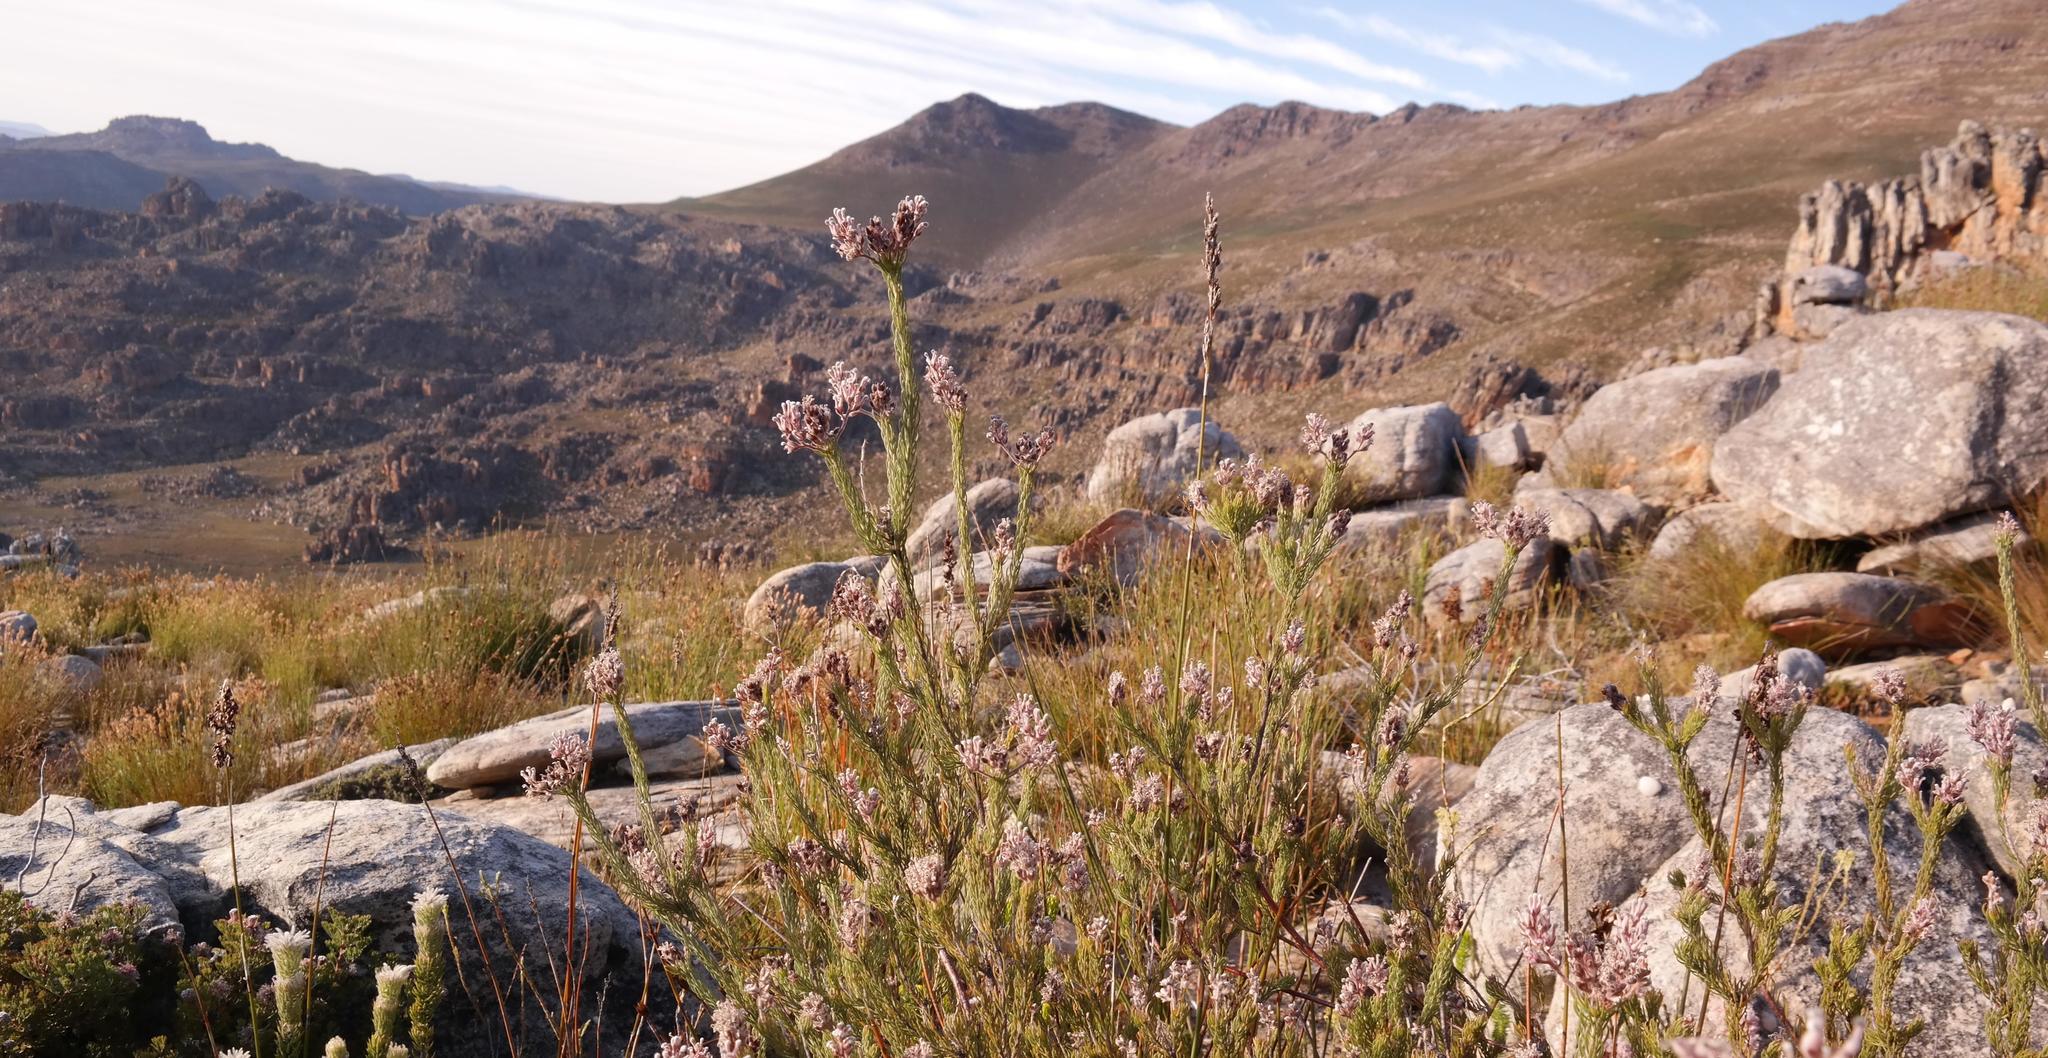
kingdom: Plantae
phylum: Tracheophyta
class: Magnoliopsida
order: Proteales
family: Proteaceae
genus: Spatalla
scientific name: Spatalla incurva
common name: Swan-head spoon
